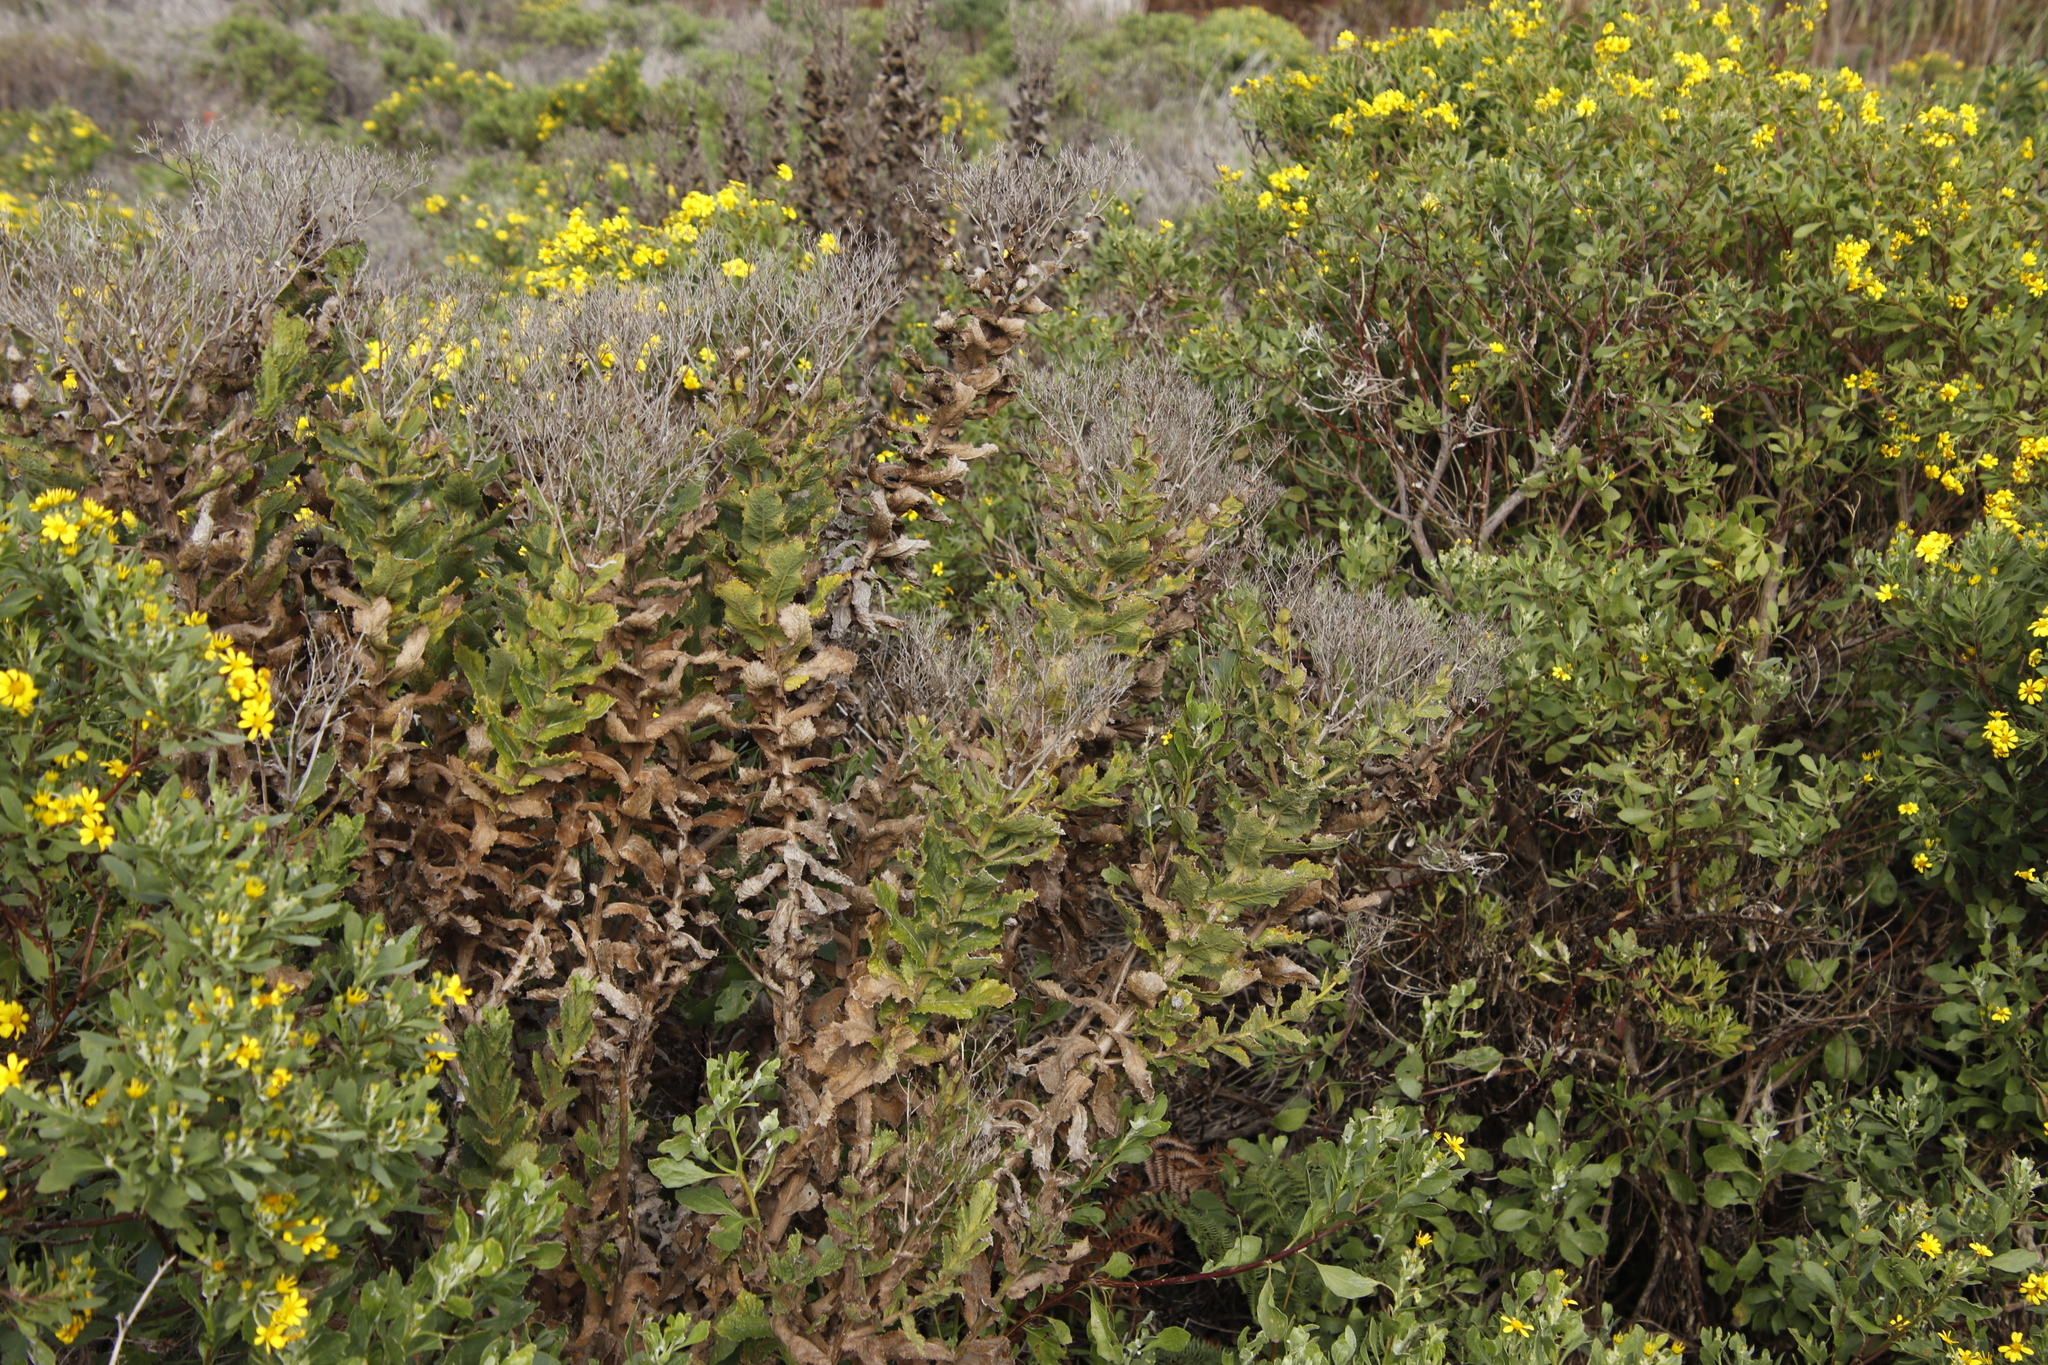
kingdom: Plantae
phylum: Tracheophyta
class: Magnoliopsida
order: Asterales
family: Asteraceae
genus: Senecio
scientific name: Senecio rigidus
